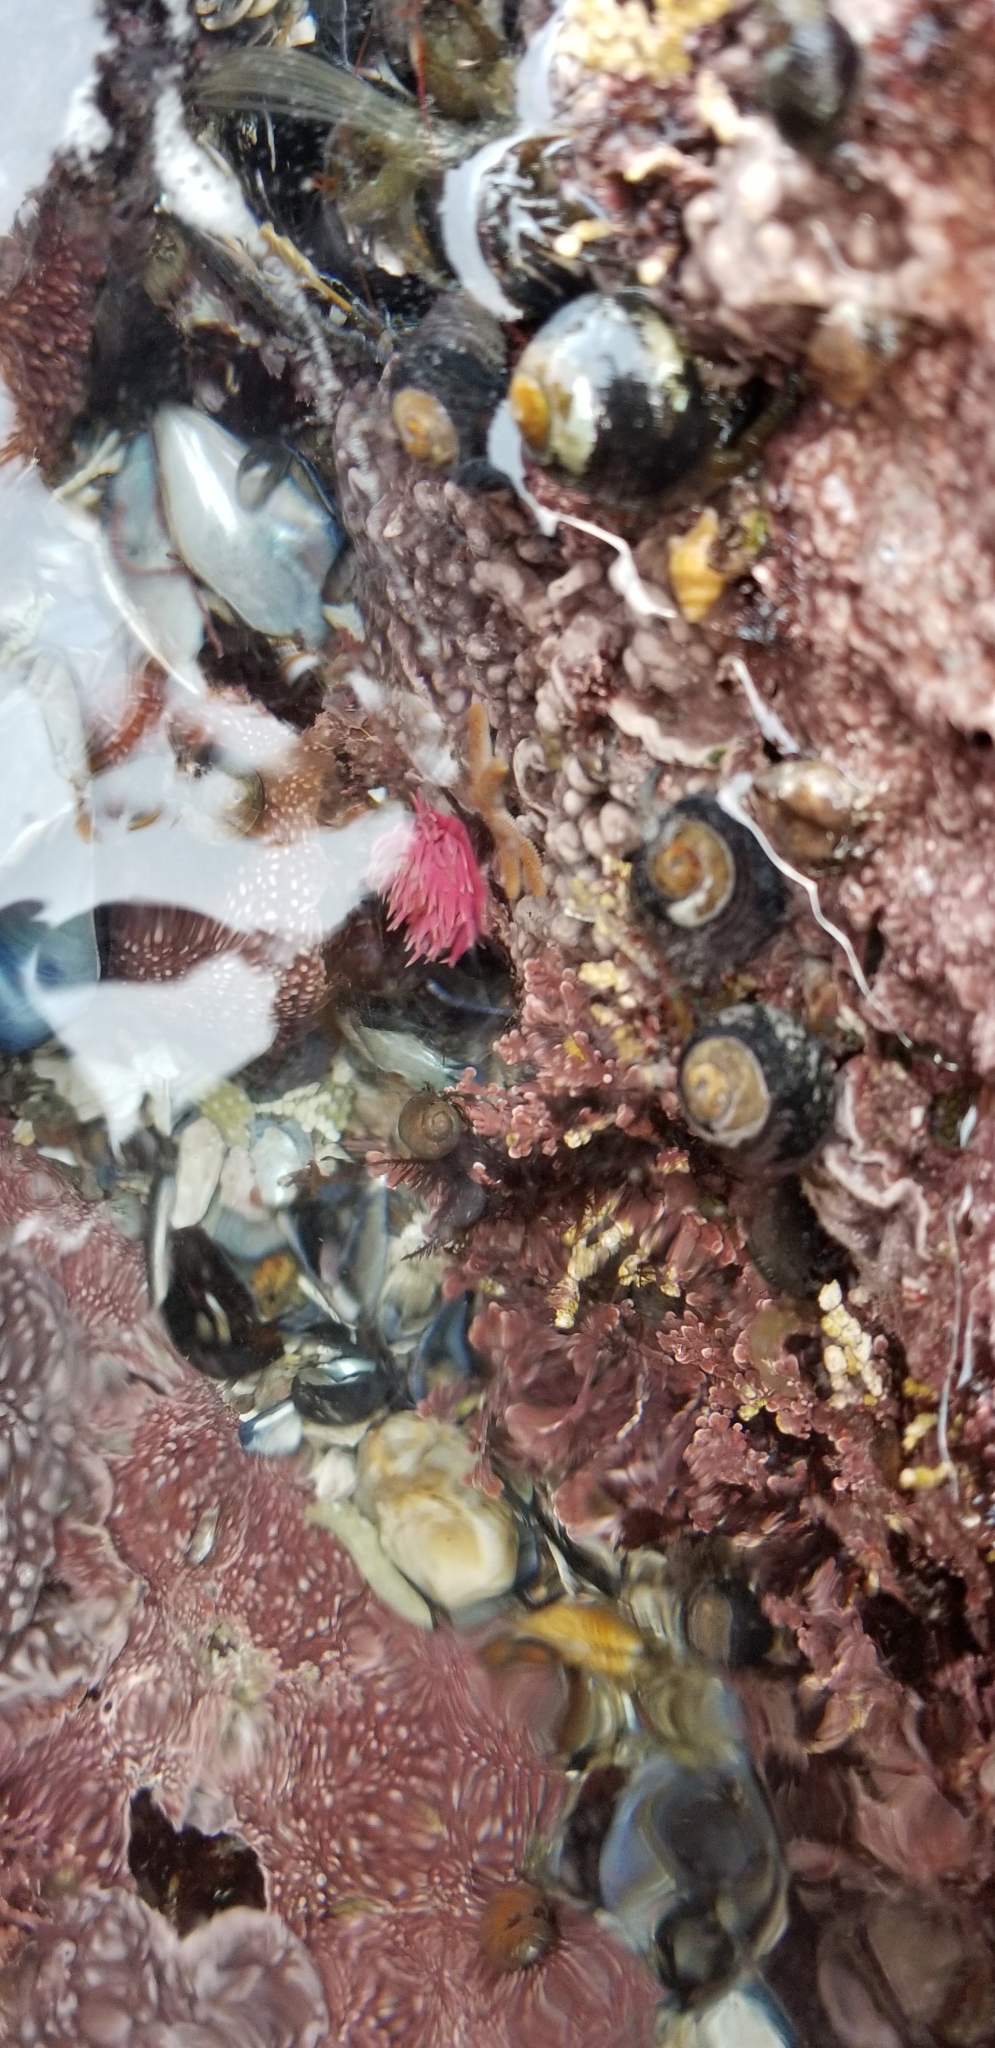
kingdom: Animalia
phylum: Mollusca
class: Gastropoda
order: Nudibranchia
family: Goniodorididae
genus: Okenia
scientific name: Okenia
